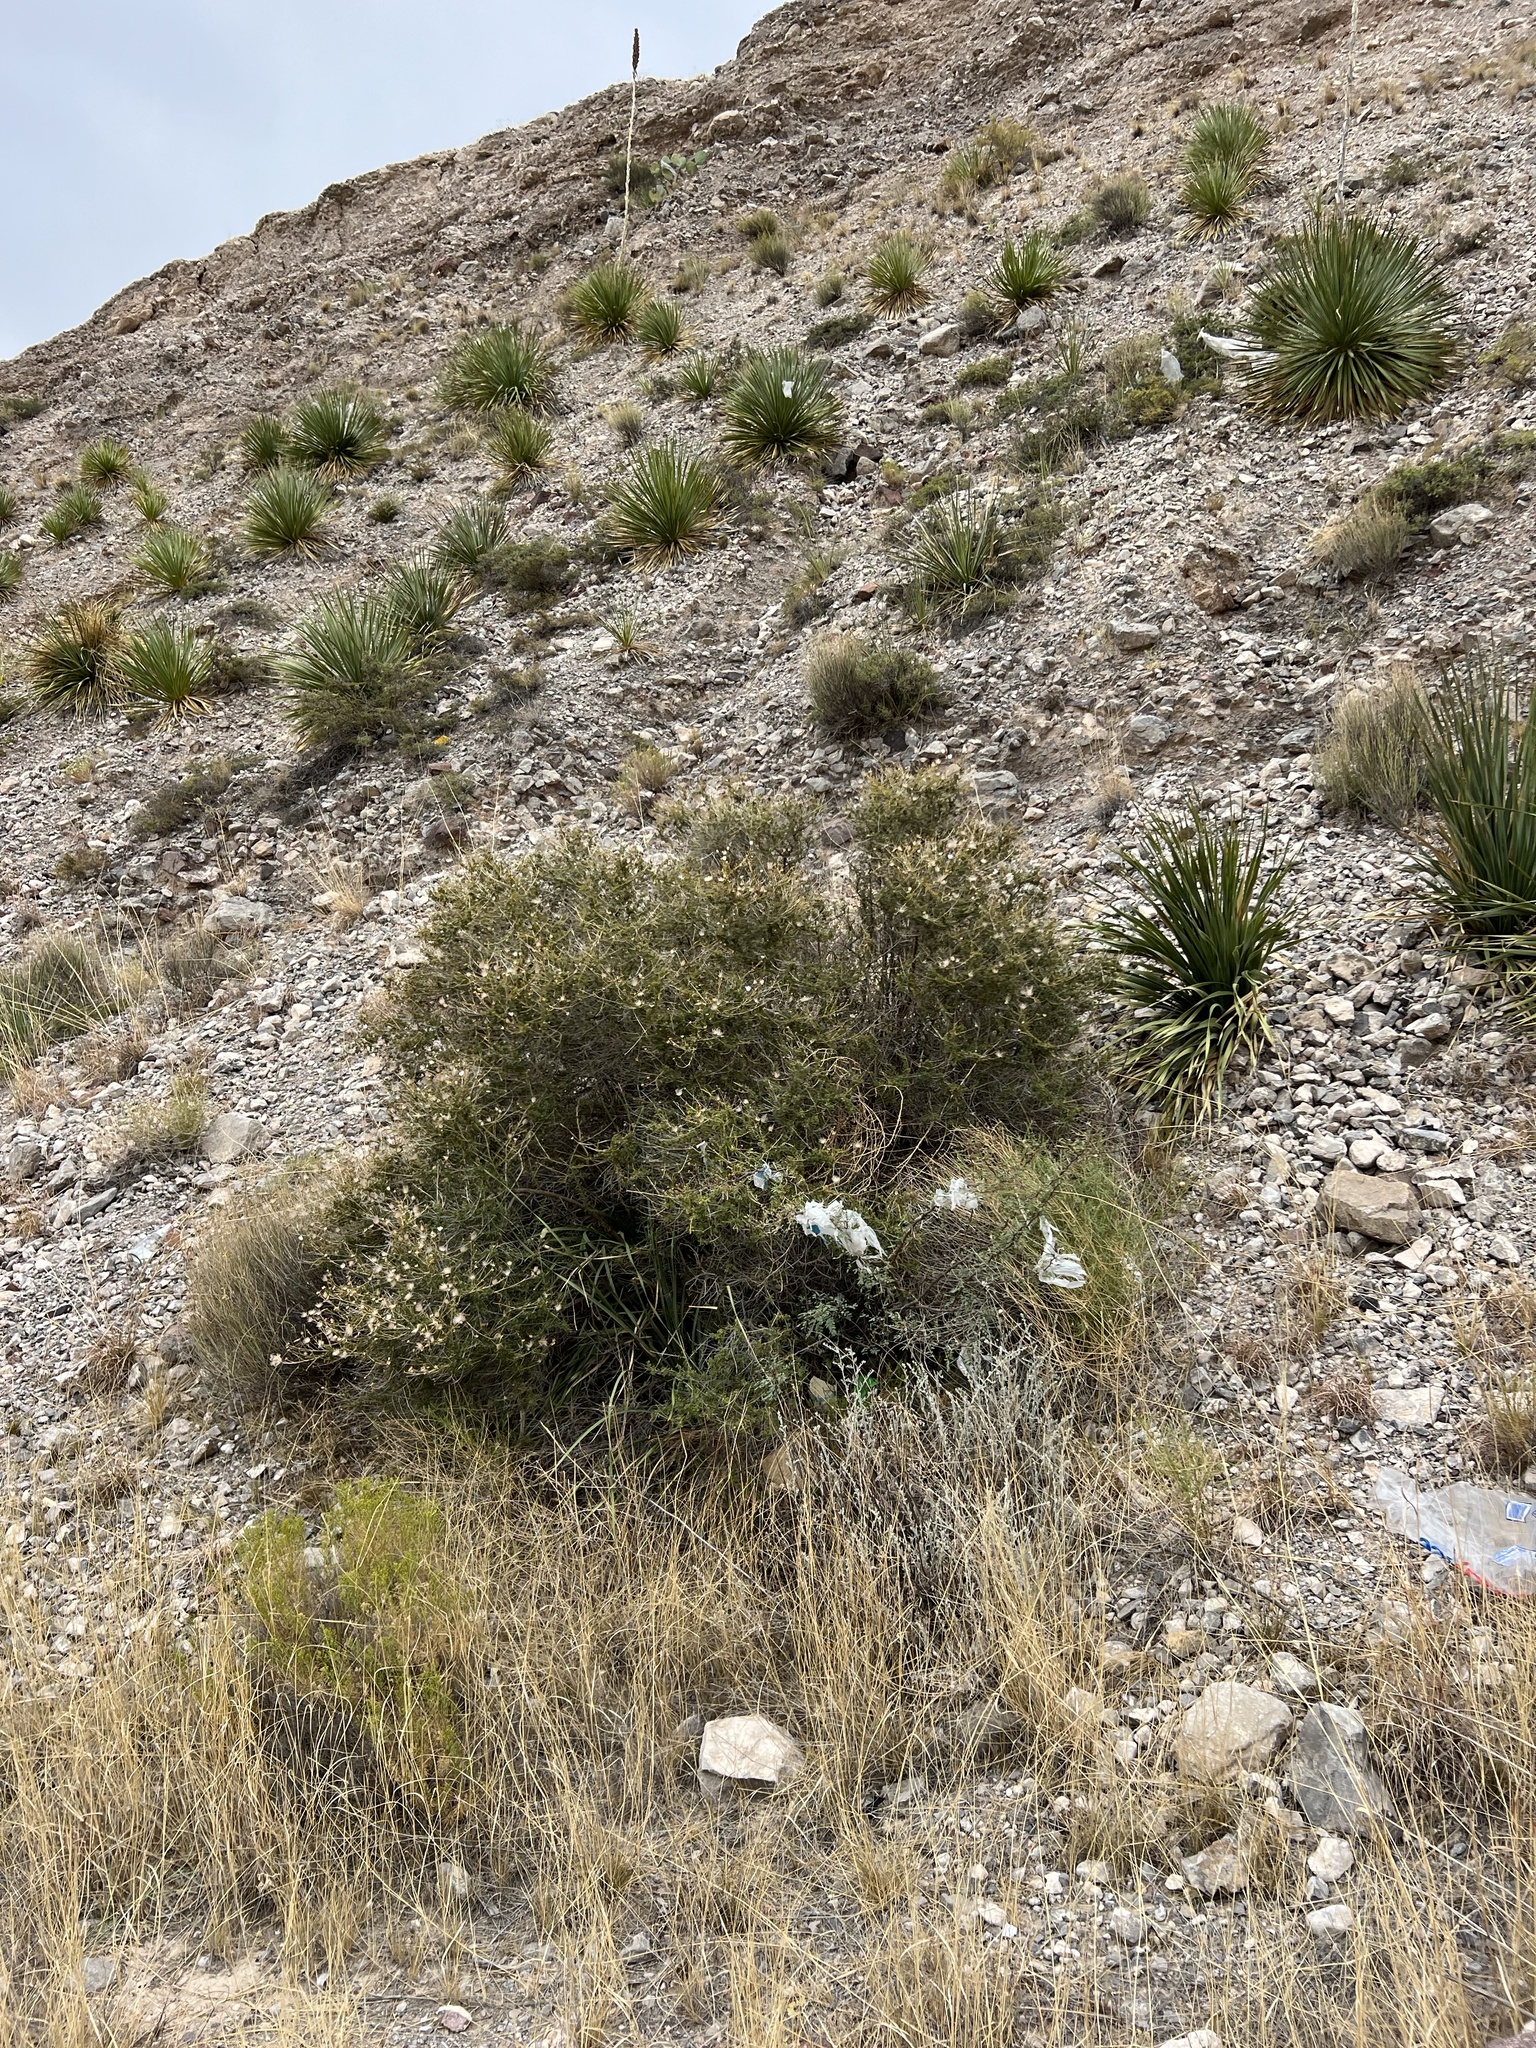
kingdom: Plantae
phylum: Tracheophyta
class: Magnoliopsida
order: Rosales
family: Rosaceae
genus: Fallugia
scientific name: Fallugia paradoxa
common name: Apache-plume
